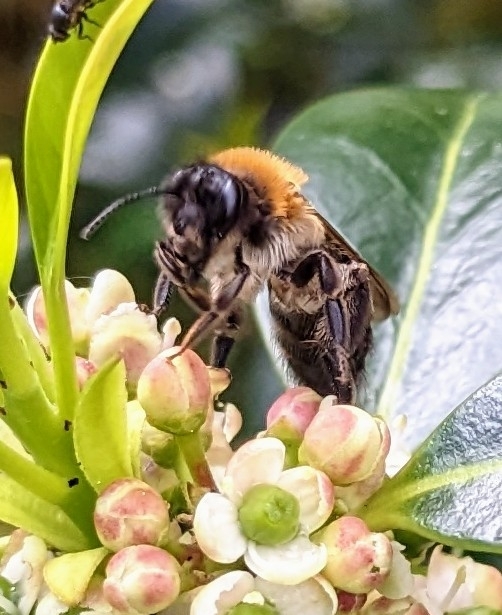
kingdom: Animalia
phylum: Arthropoda
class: Insecta
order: Hymenoptera
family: Andrenidae
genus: Andrena
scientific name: Andrena nitida
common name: Grey-patched mining bee
